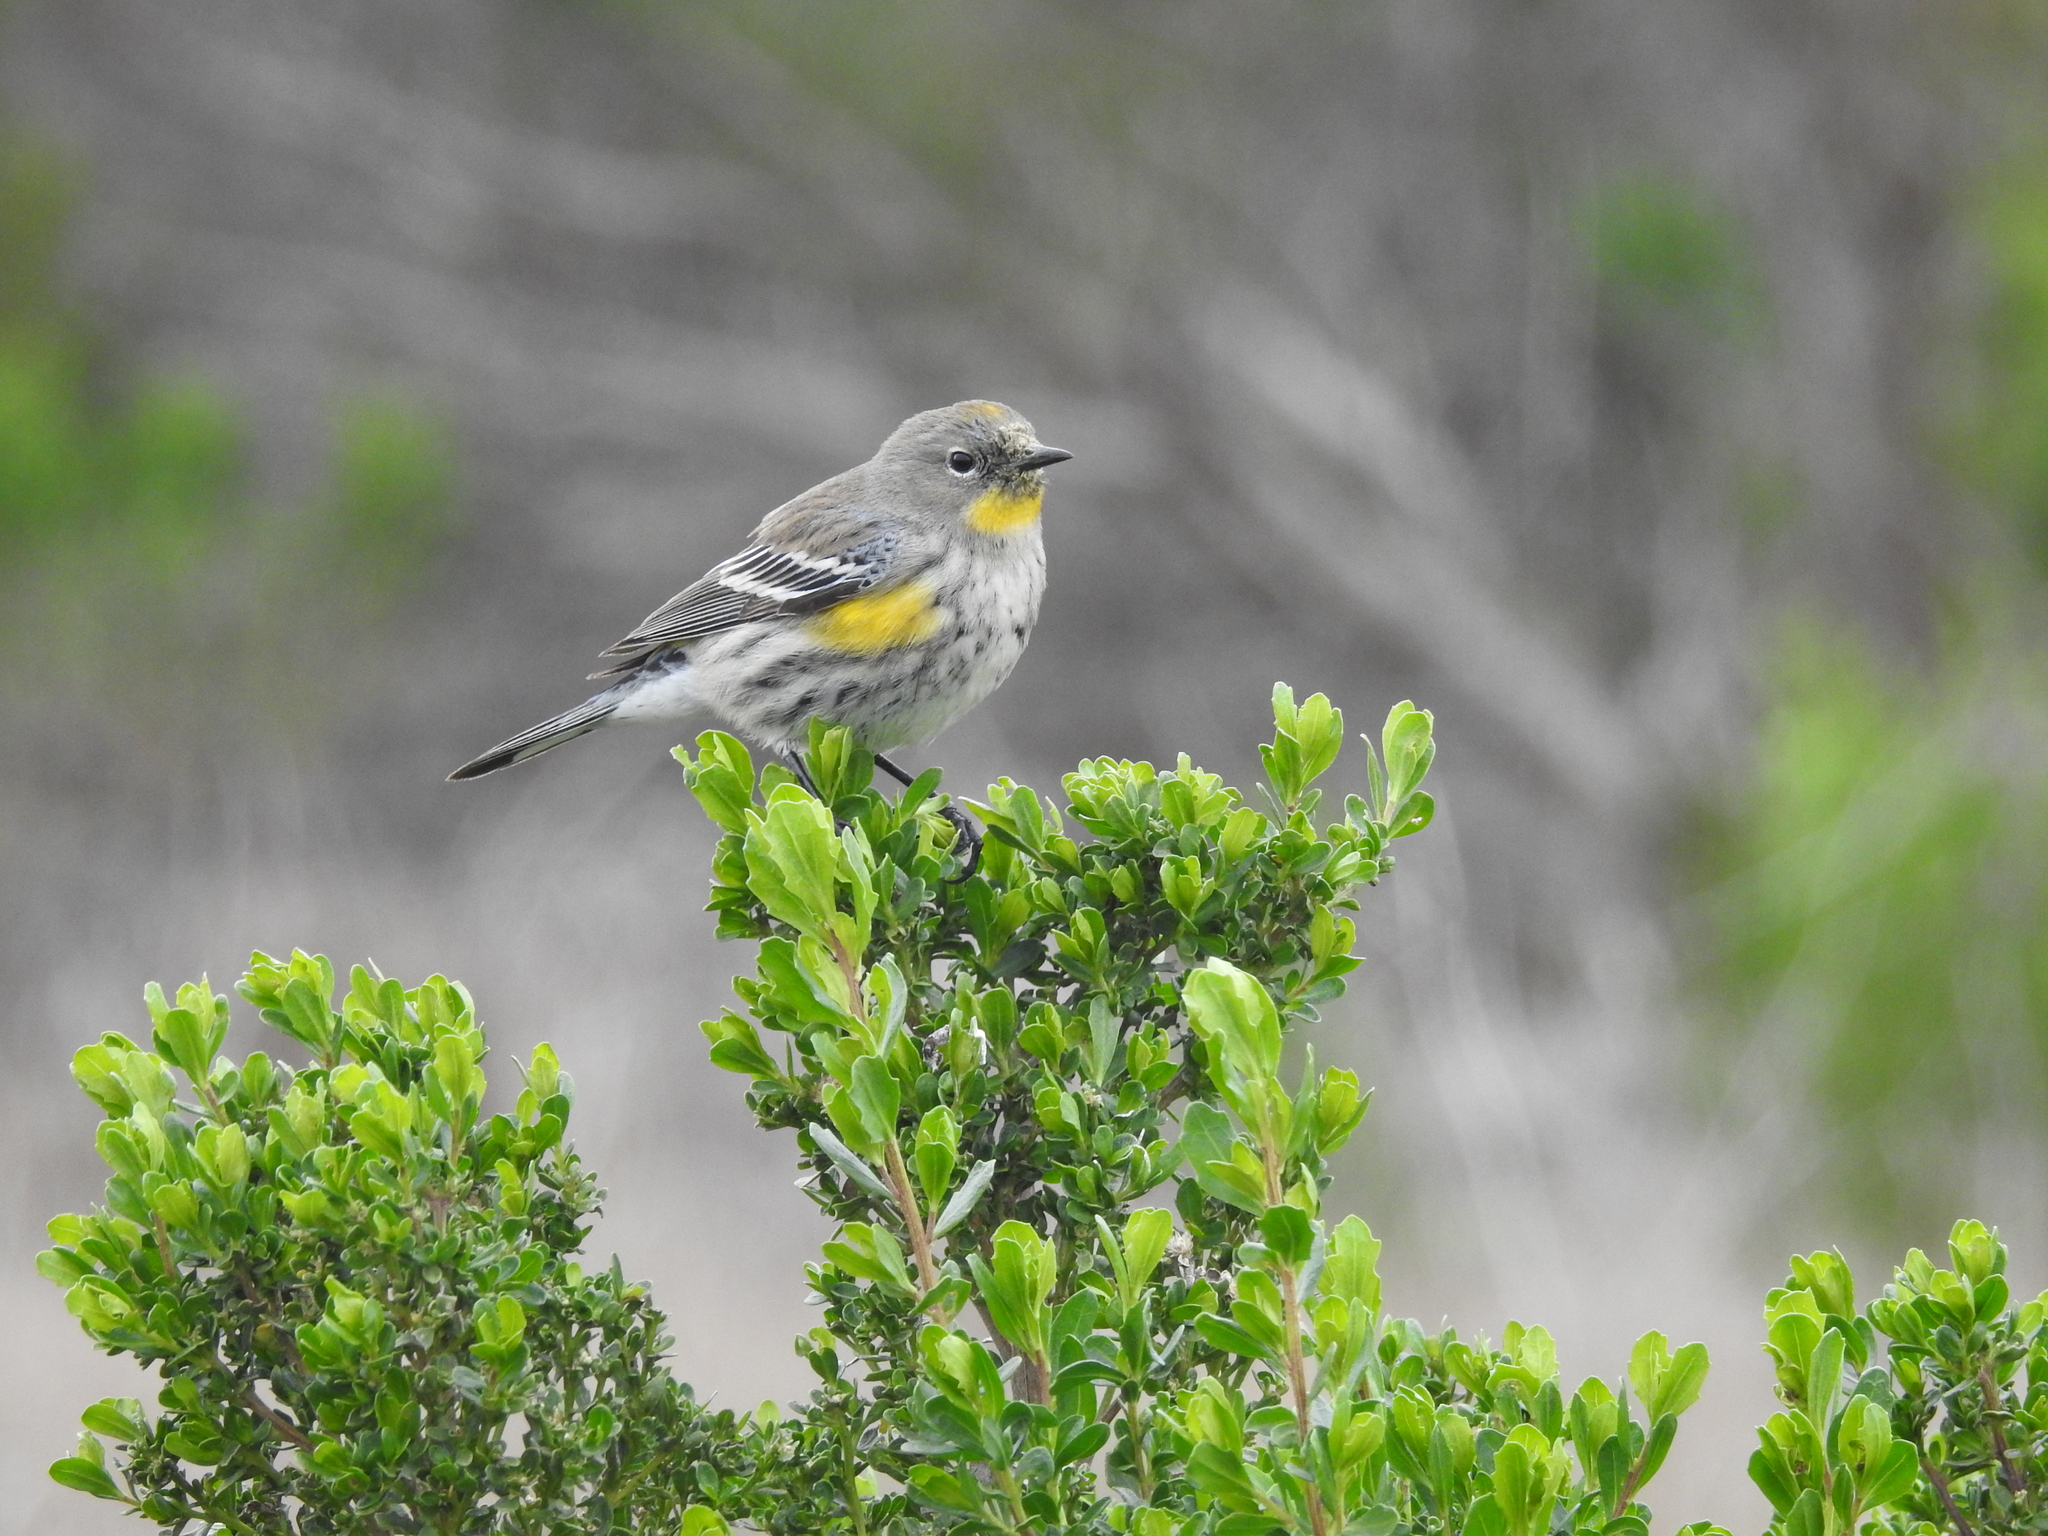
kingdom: Animalia
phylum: Chordata
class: Aves
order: Passeriformes
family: Parulidae
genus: Setophaga
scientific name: Setophaga coronata
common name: Myrtle warbler
